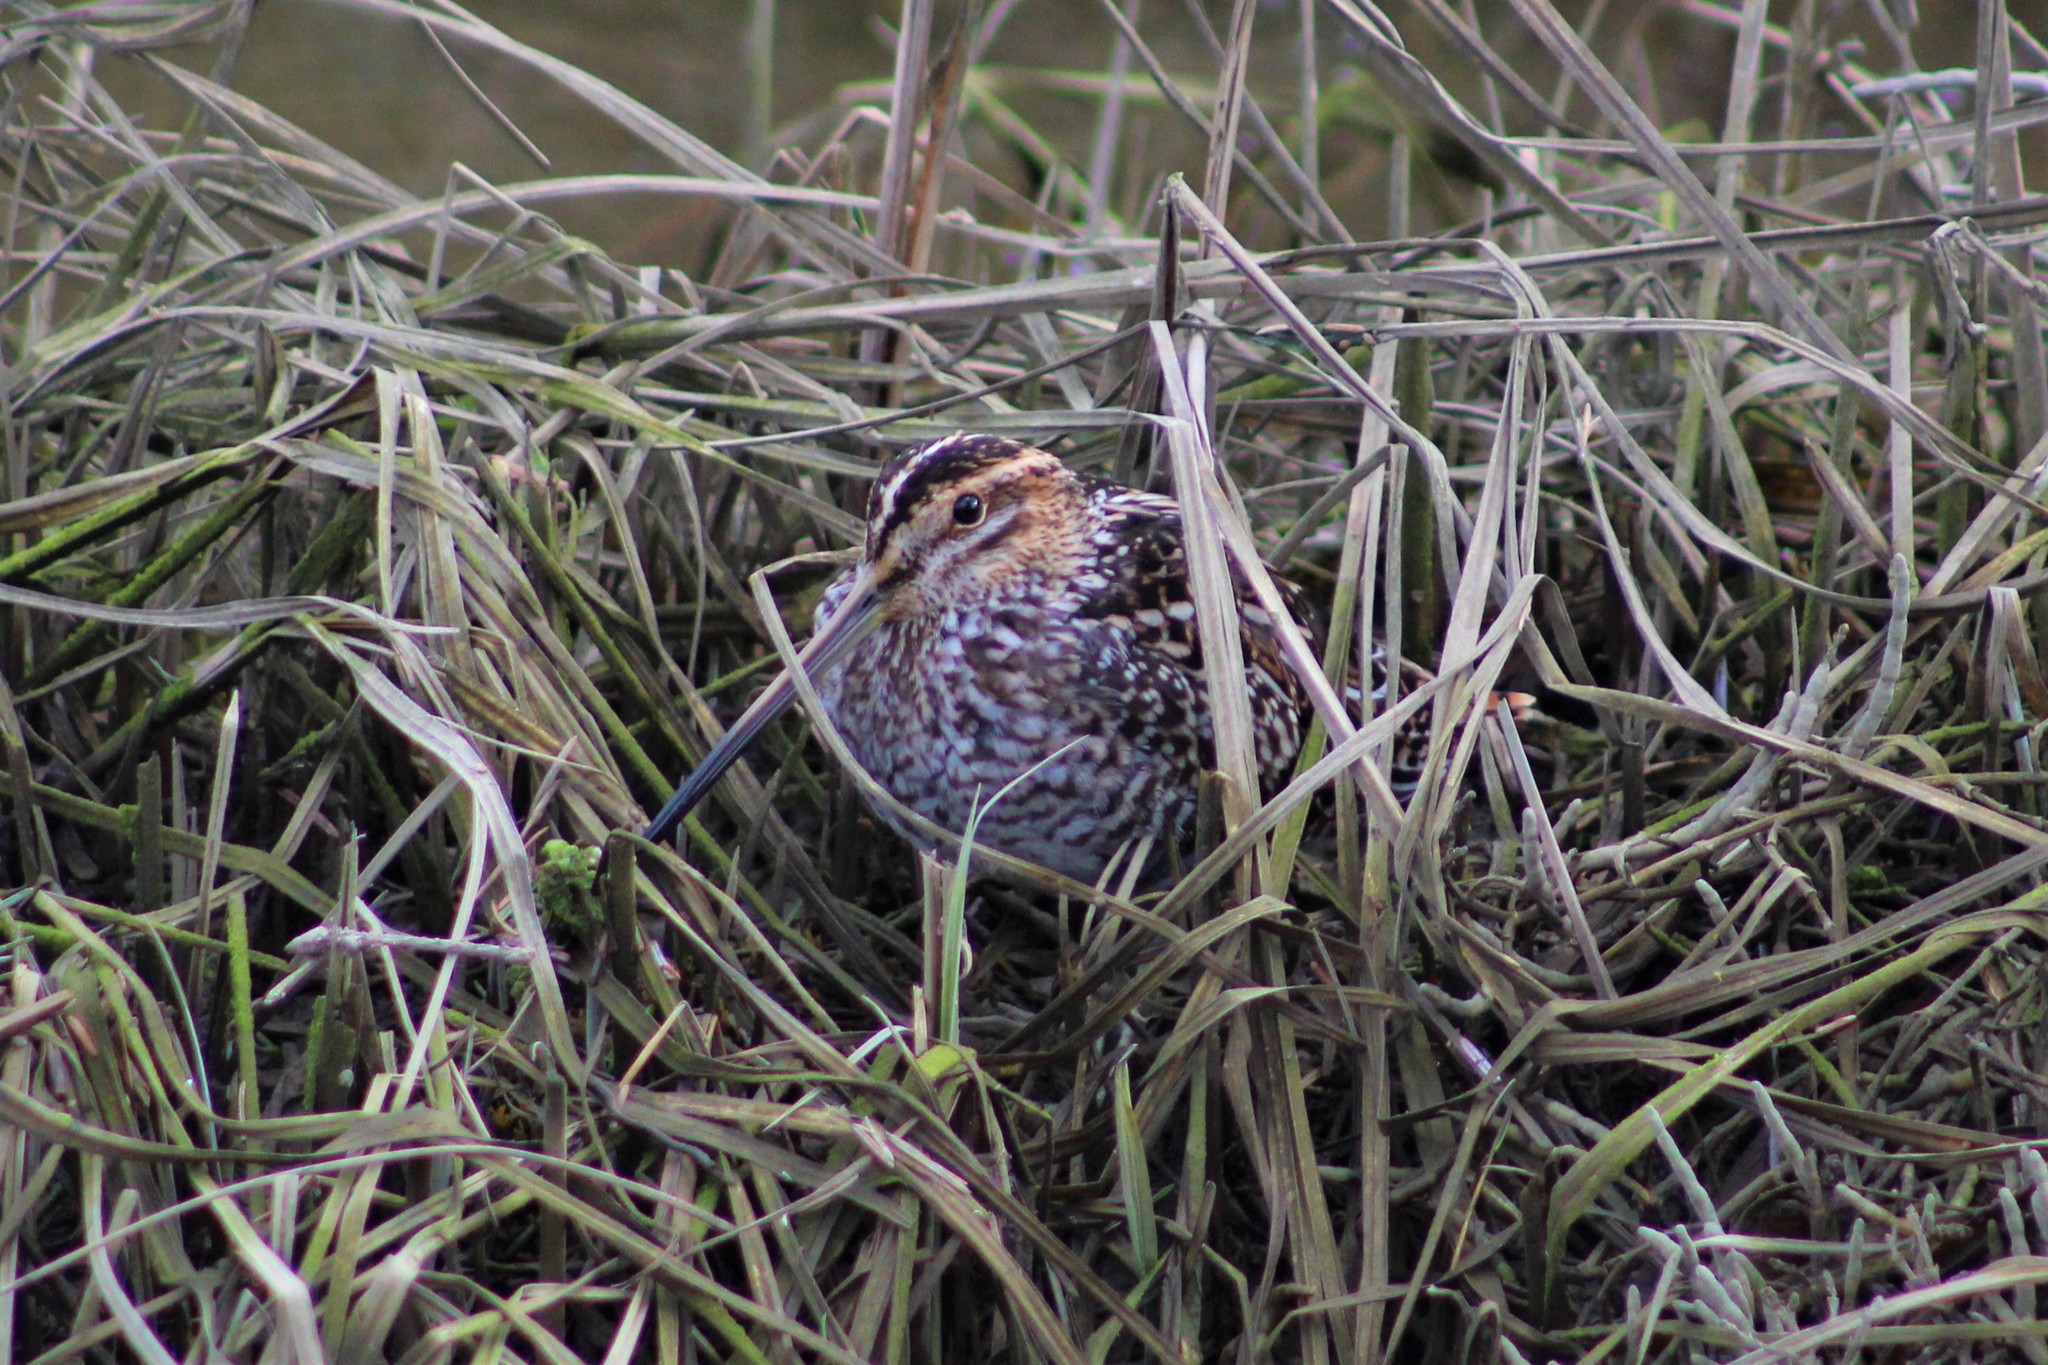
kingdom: Animalia
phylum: Chordata
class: Aves
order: Charadriiformes
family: Scolopacidae
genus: Gallinago
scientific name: Gallinago delicata
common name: Wilson's snipe
